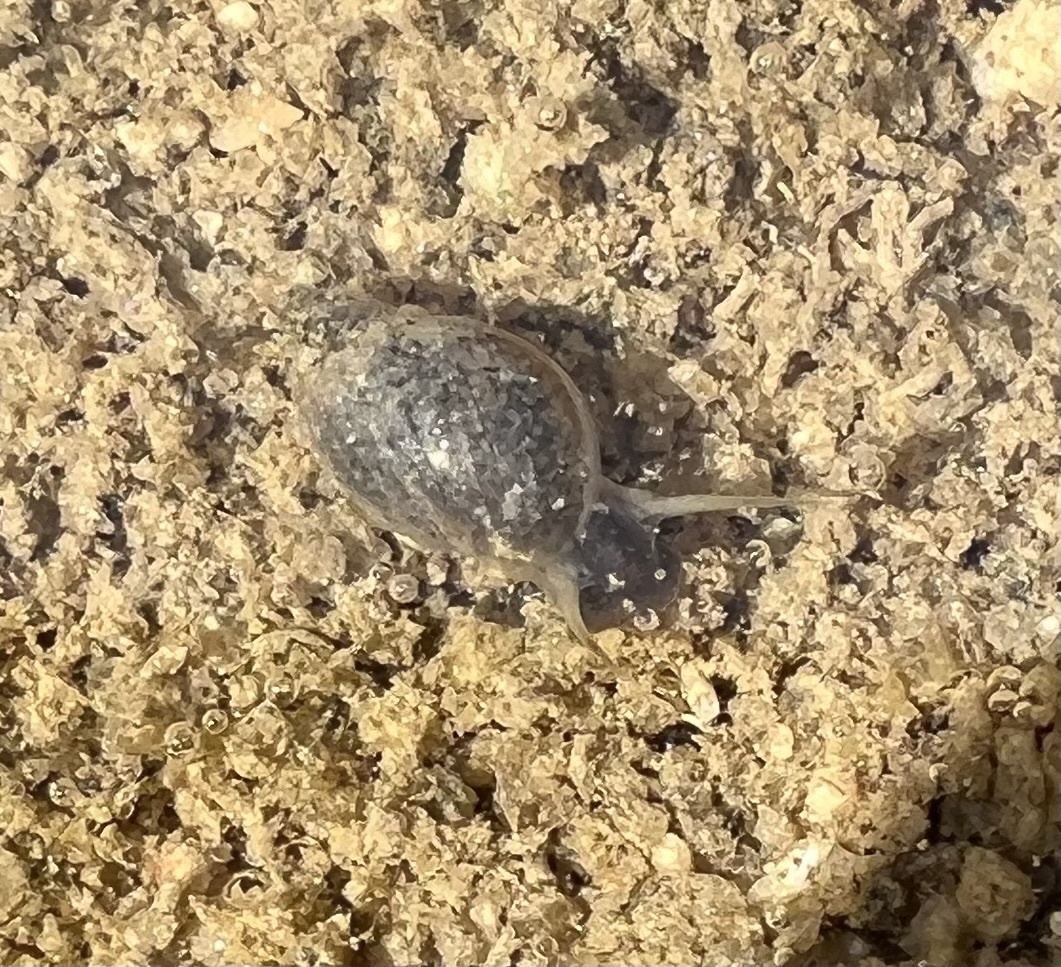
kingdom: Animalia
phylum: Mollusca
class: Gastropoda
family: Physidae
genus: Physella
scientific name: Physella acuta
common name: European physa
